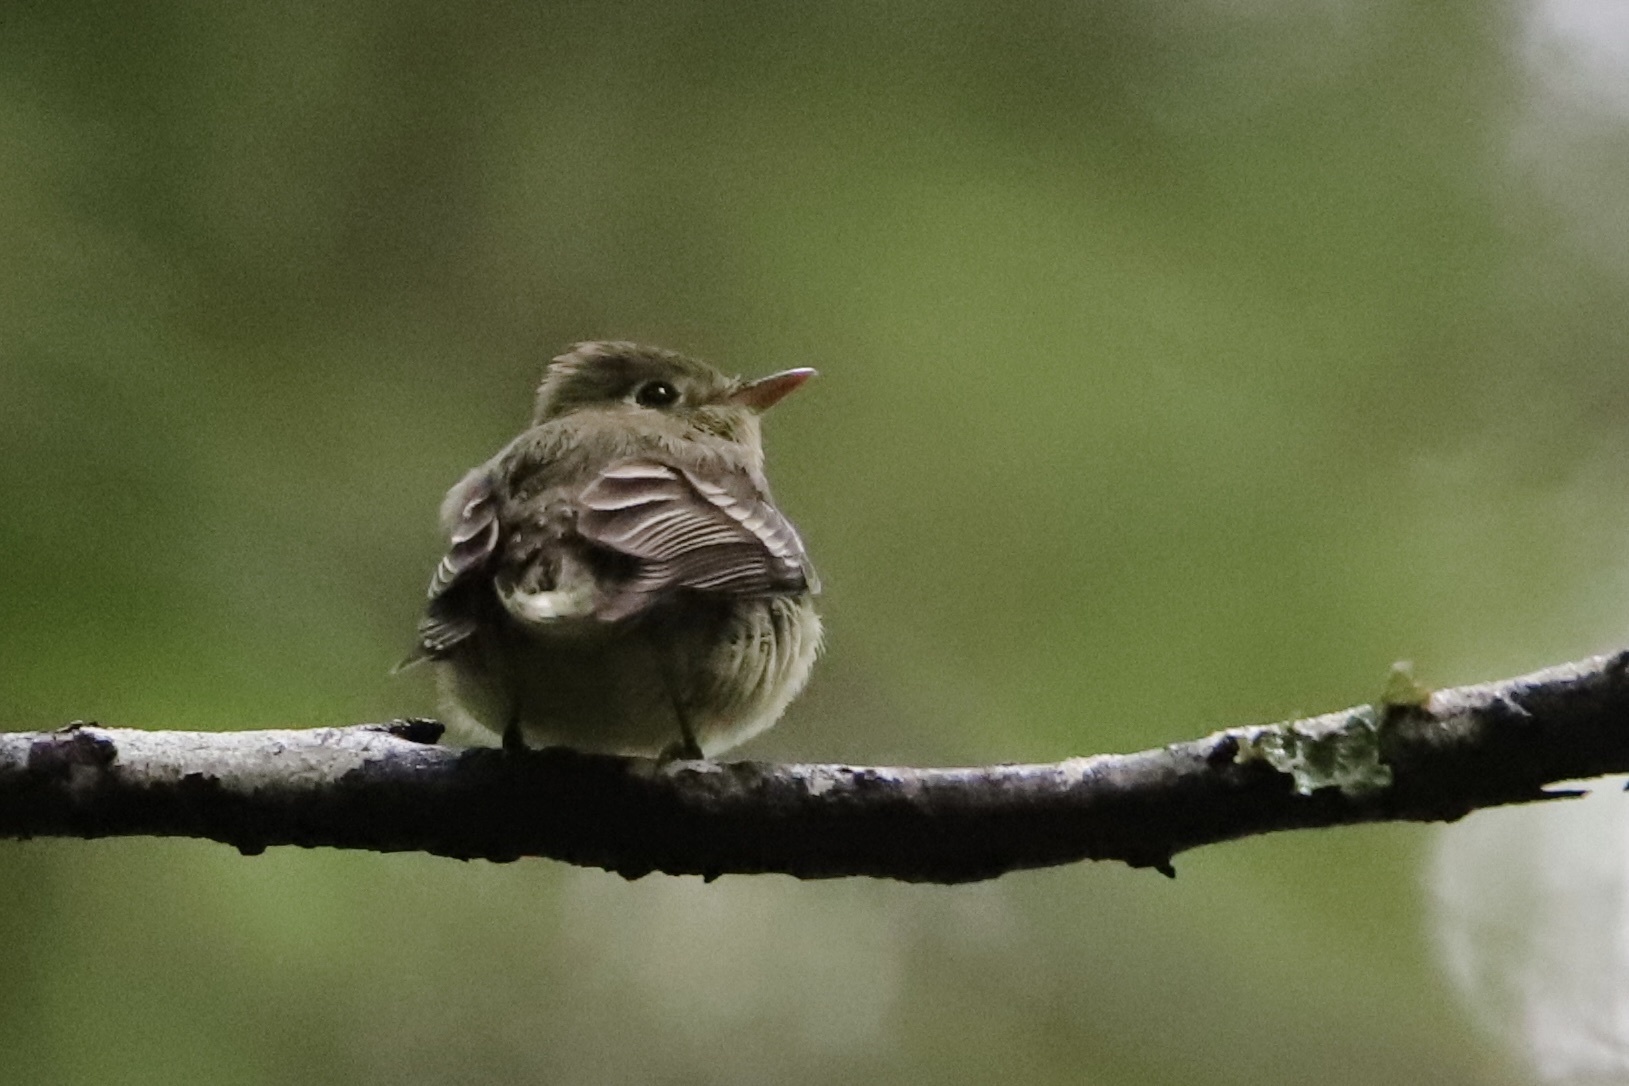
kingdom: Animalia
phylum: Chordata
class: Aves
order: Passeriformes
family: Tyrannidae
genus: Empidonax
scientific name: Empidonax difficilis
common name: Pacific-slope flycatcher
